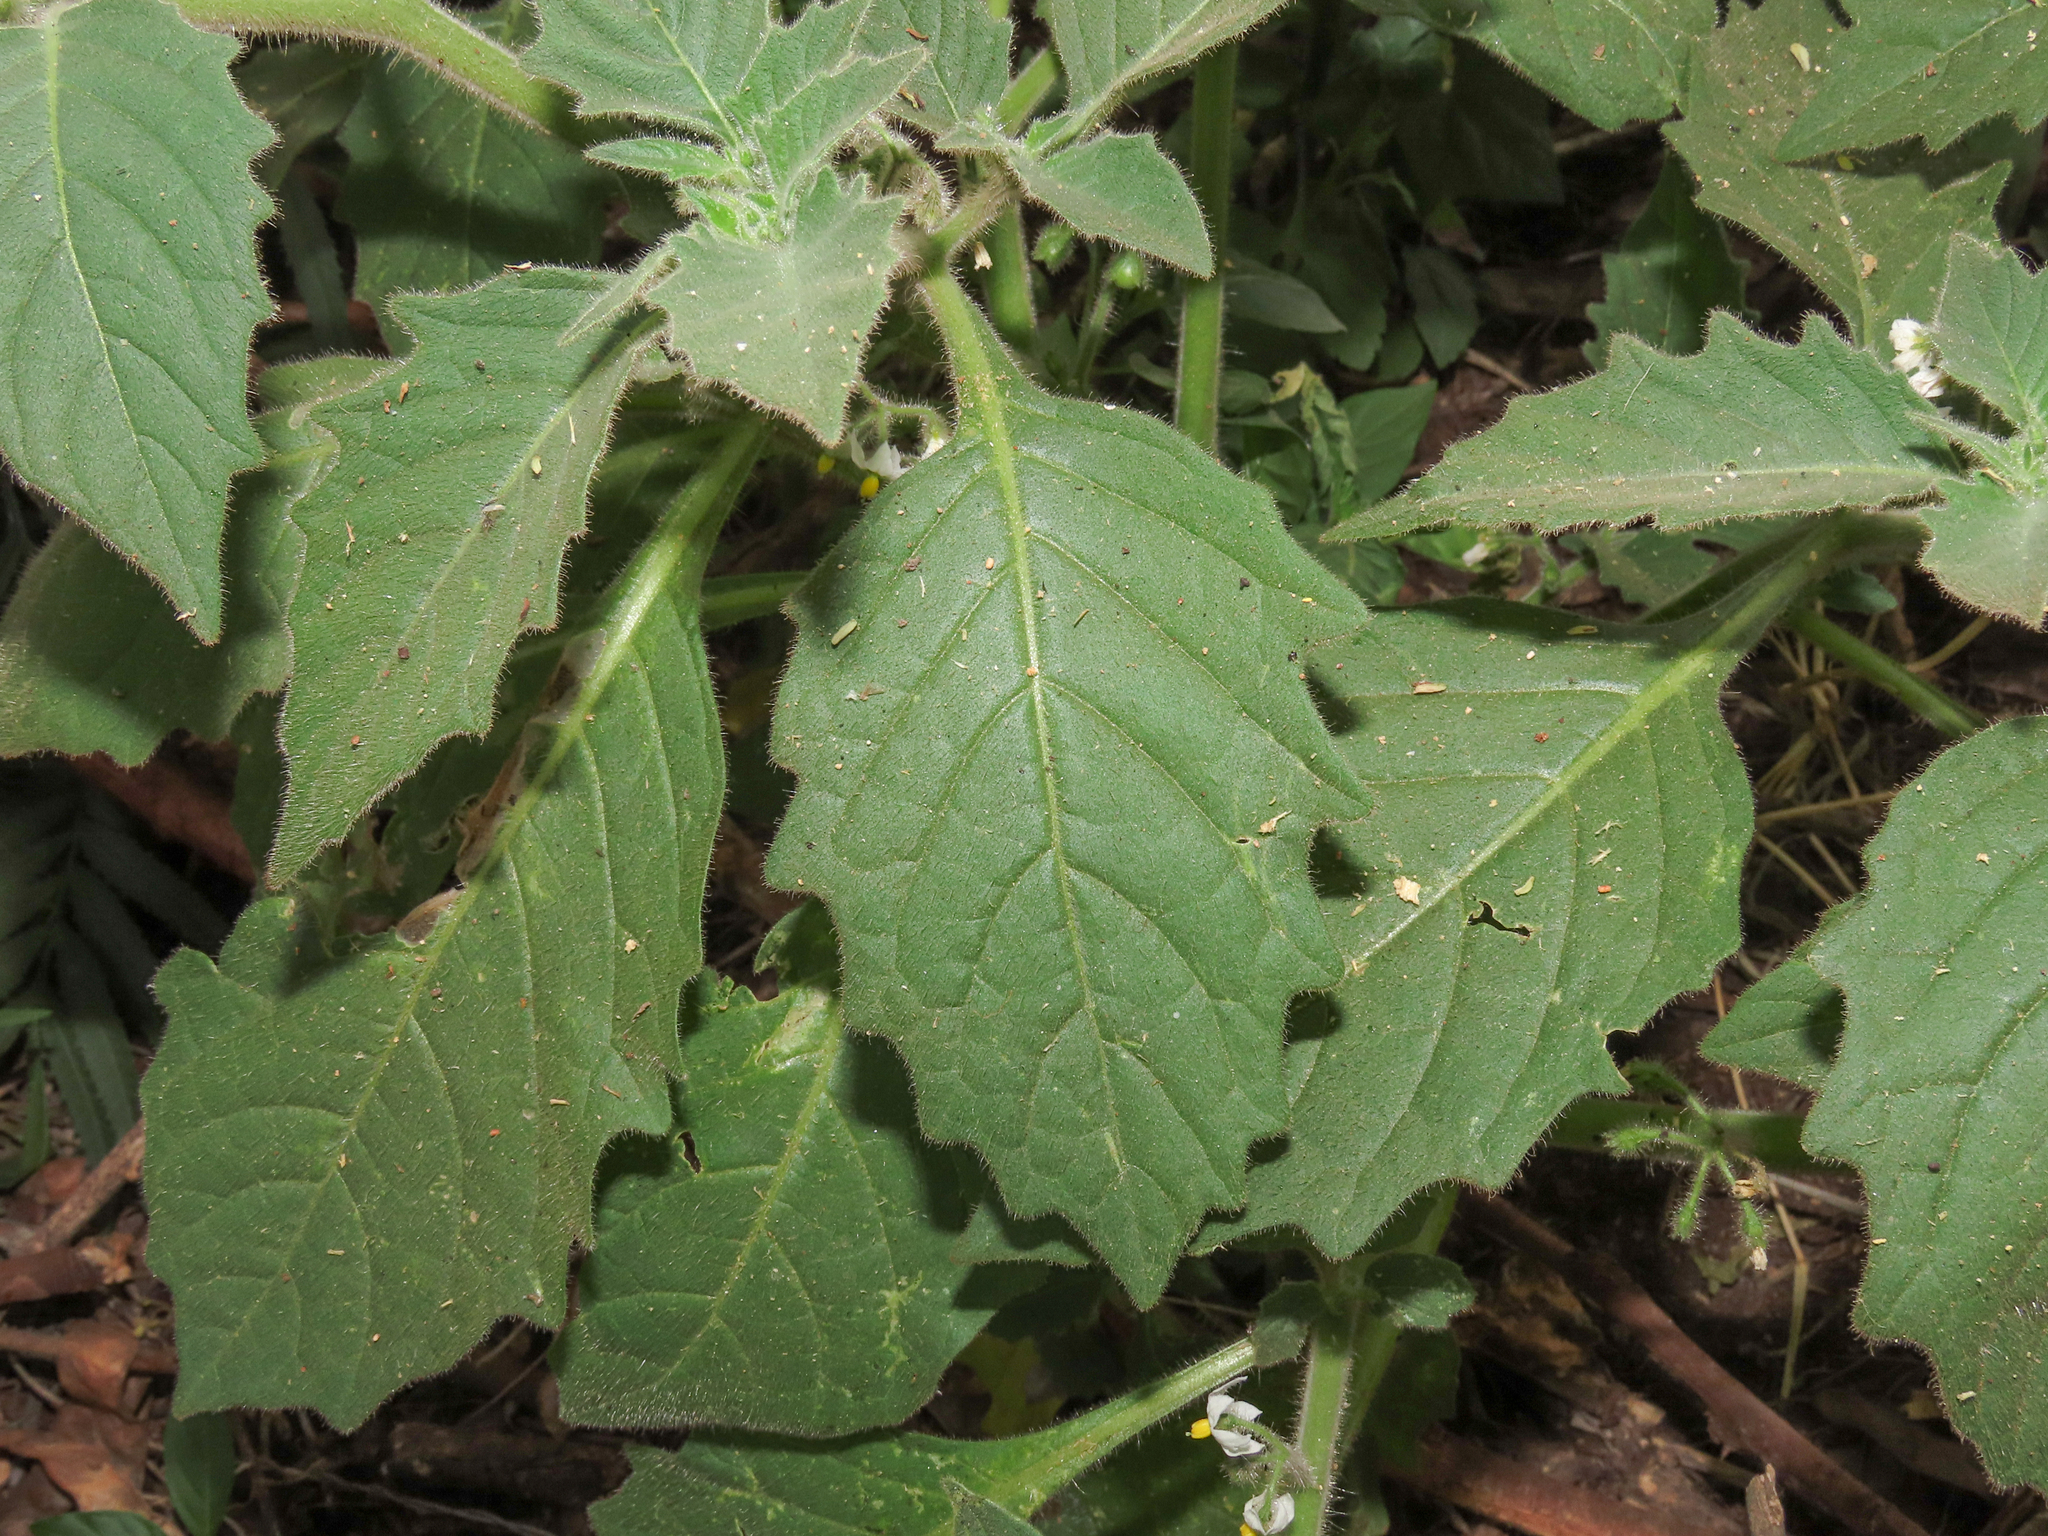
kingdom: Plantae
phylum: Tracheophyta
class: Magnoliopsida
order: Solanales
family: Solanaceae
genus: Solanum
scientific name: Solanum memphiticum
